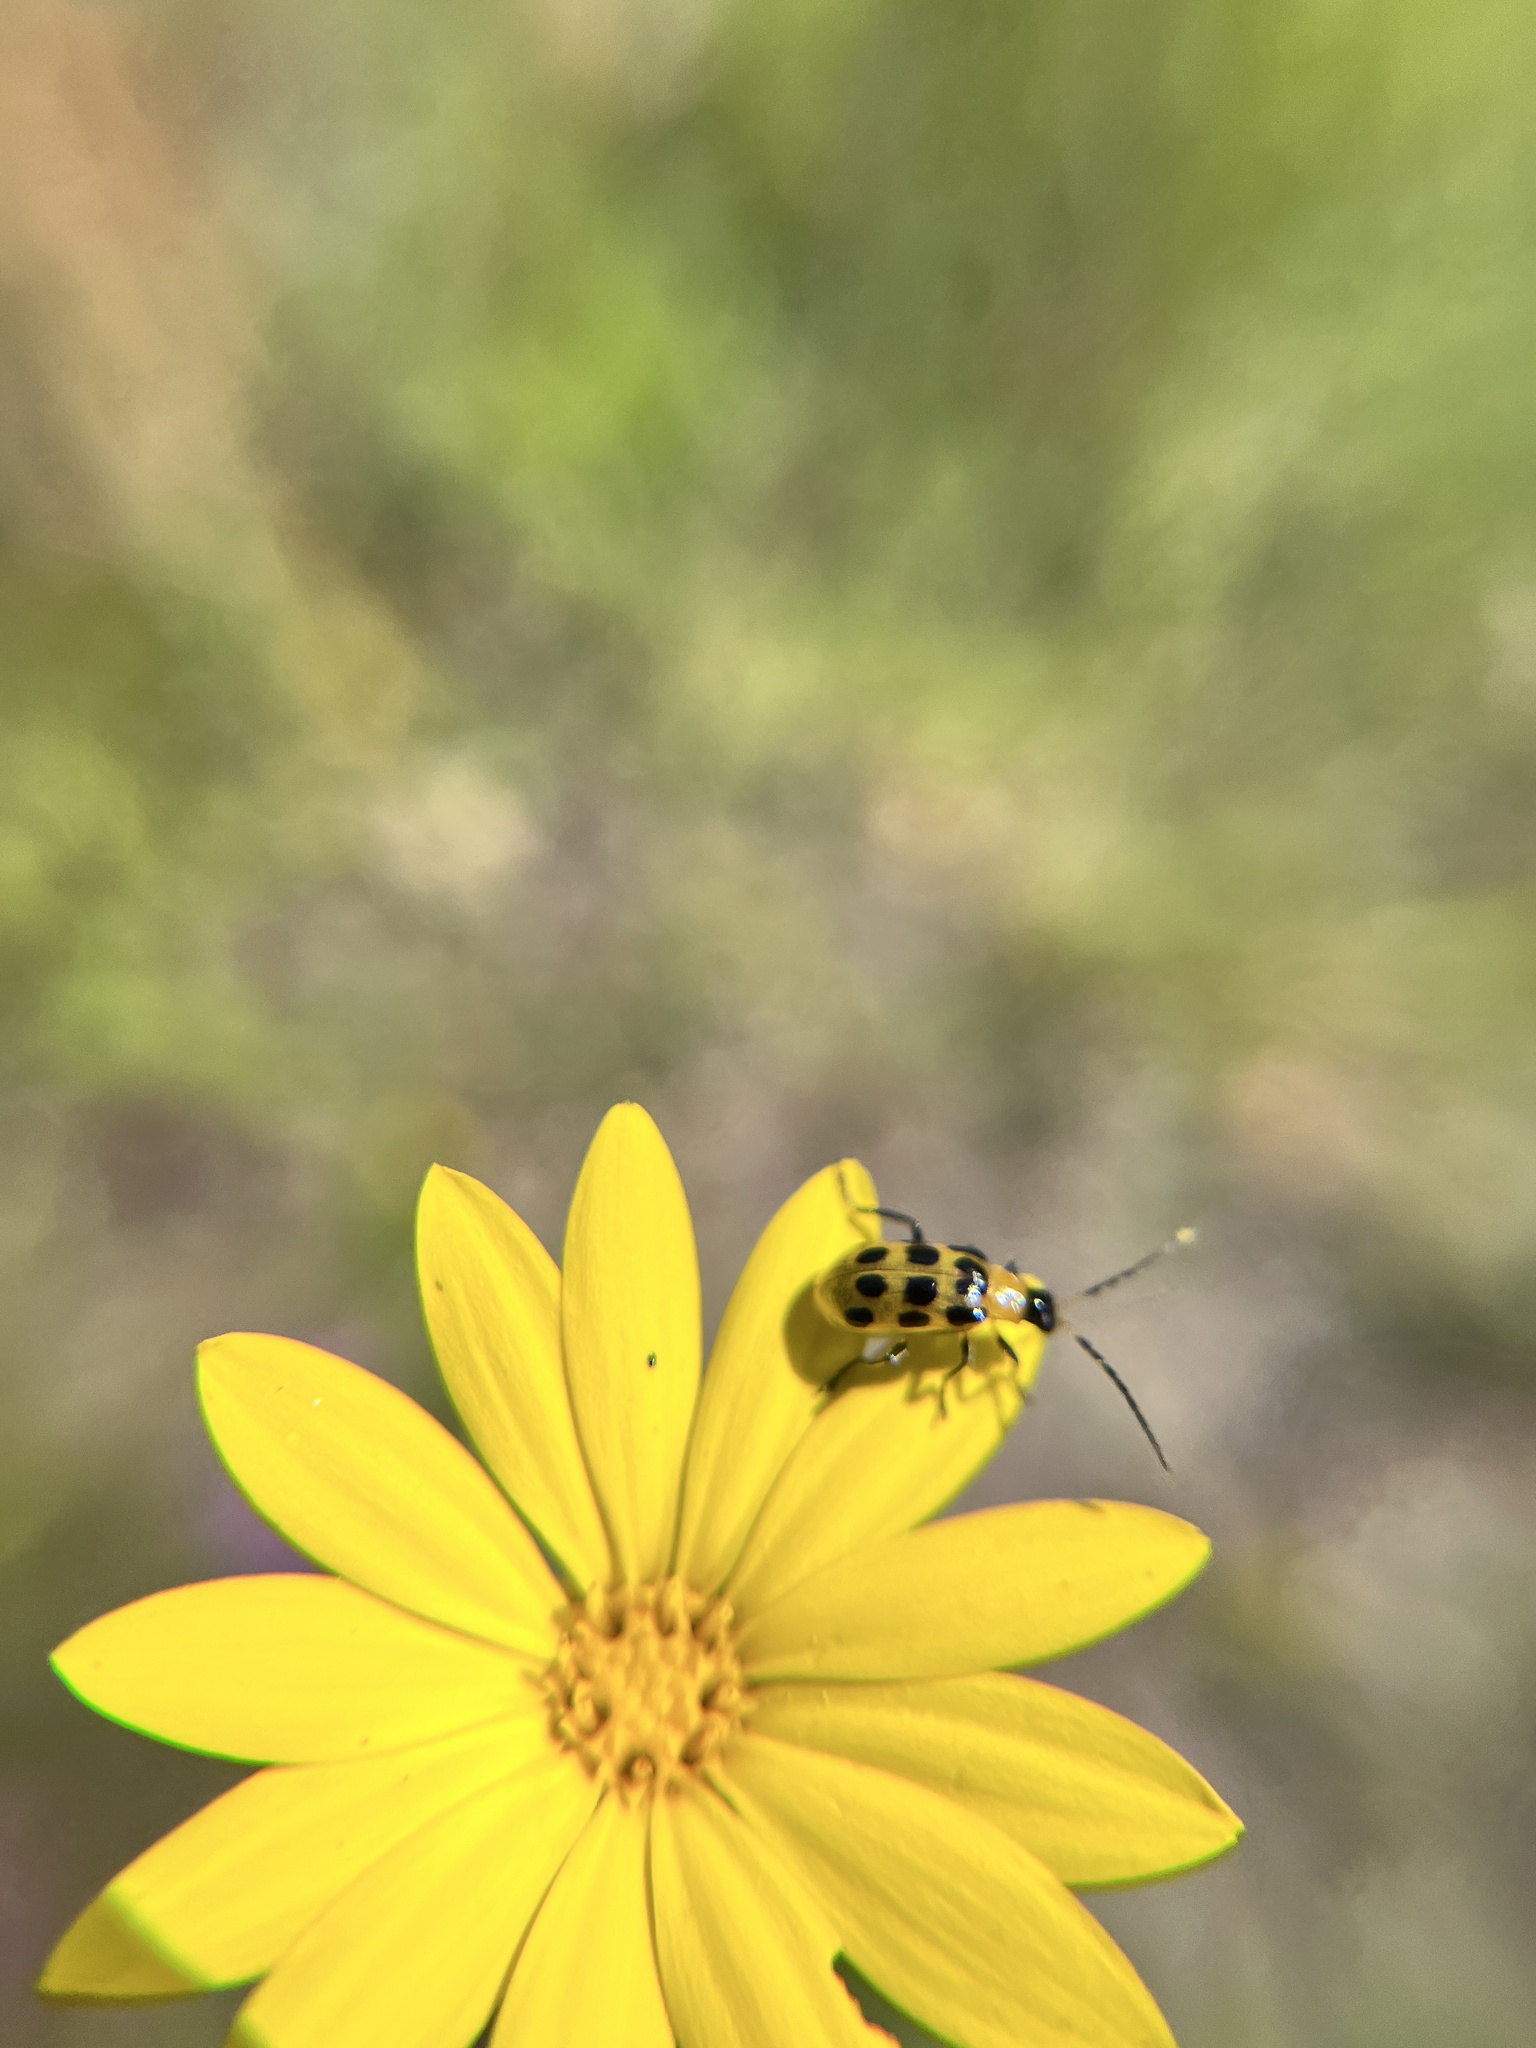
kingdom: Animalia
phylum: Arthropoda
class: Insecta
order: Coleoptera
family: Chrysomelidae
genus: Diabrotica
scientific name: Diabrotica undecimpunctata
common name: Spotted cucumber beetle
